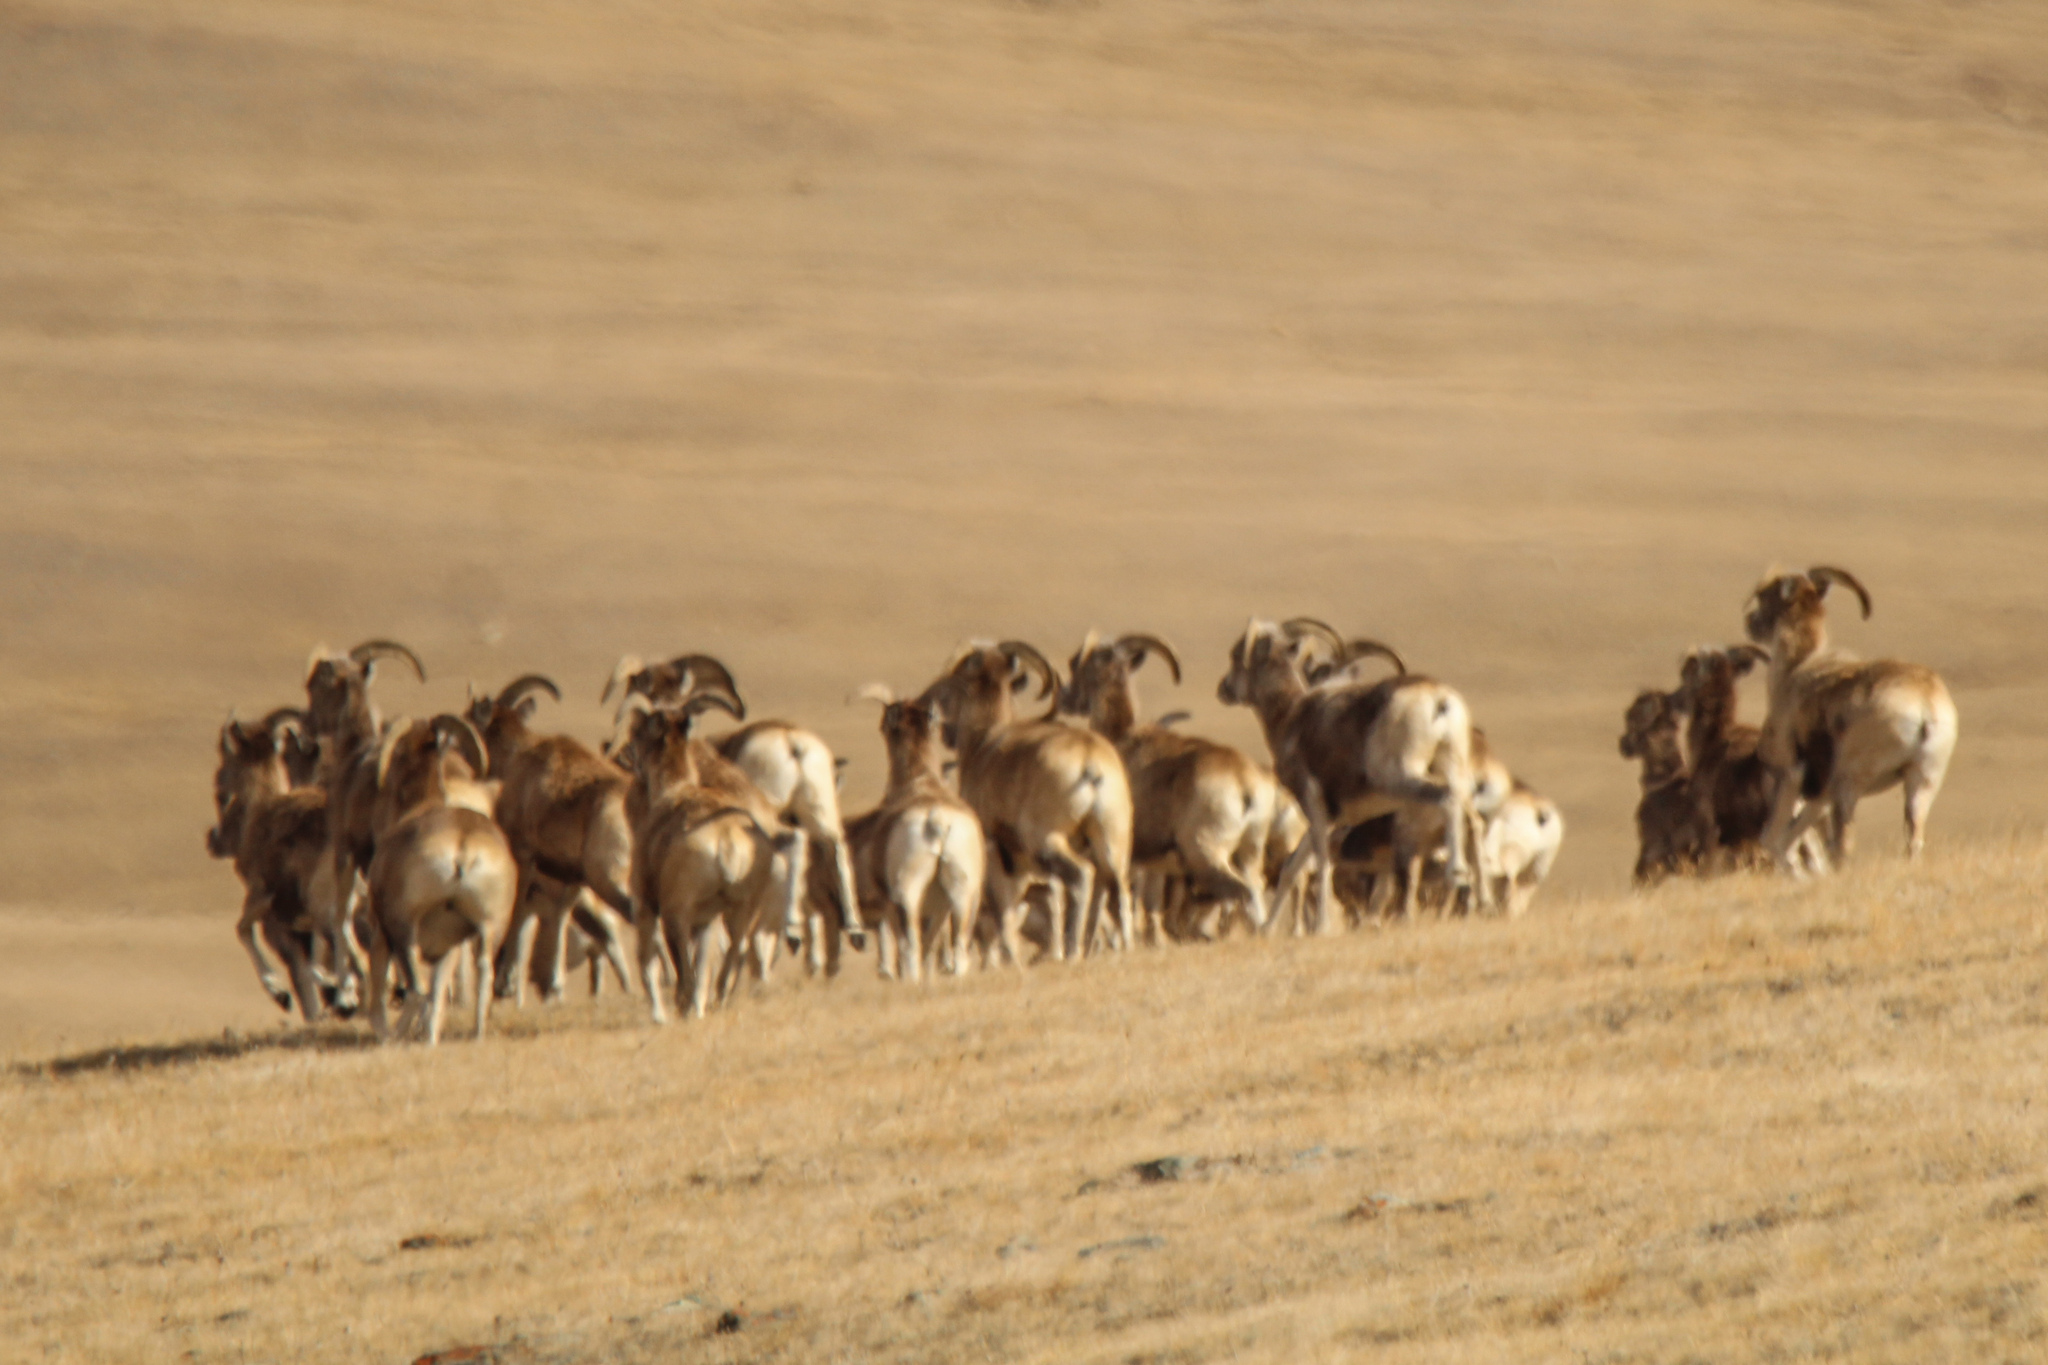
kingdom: Animalia
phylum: Chordata
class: Mammalia
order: Artiodactyla
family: Bovidae
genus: Ovis
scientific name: Ovis ammon
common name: Argali
